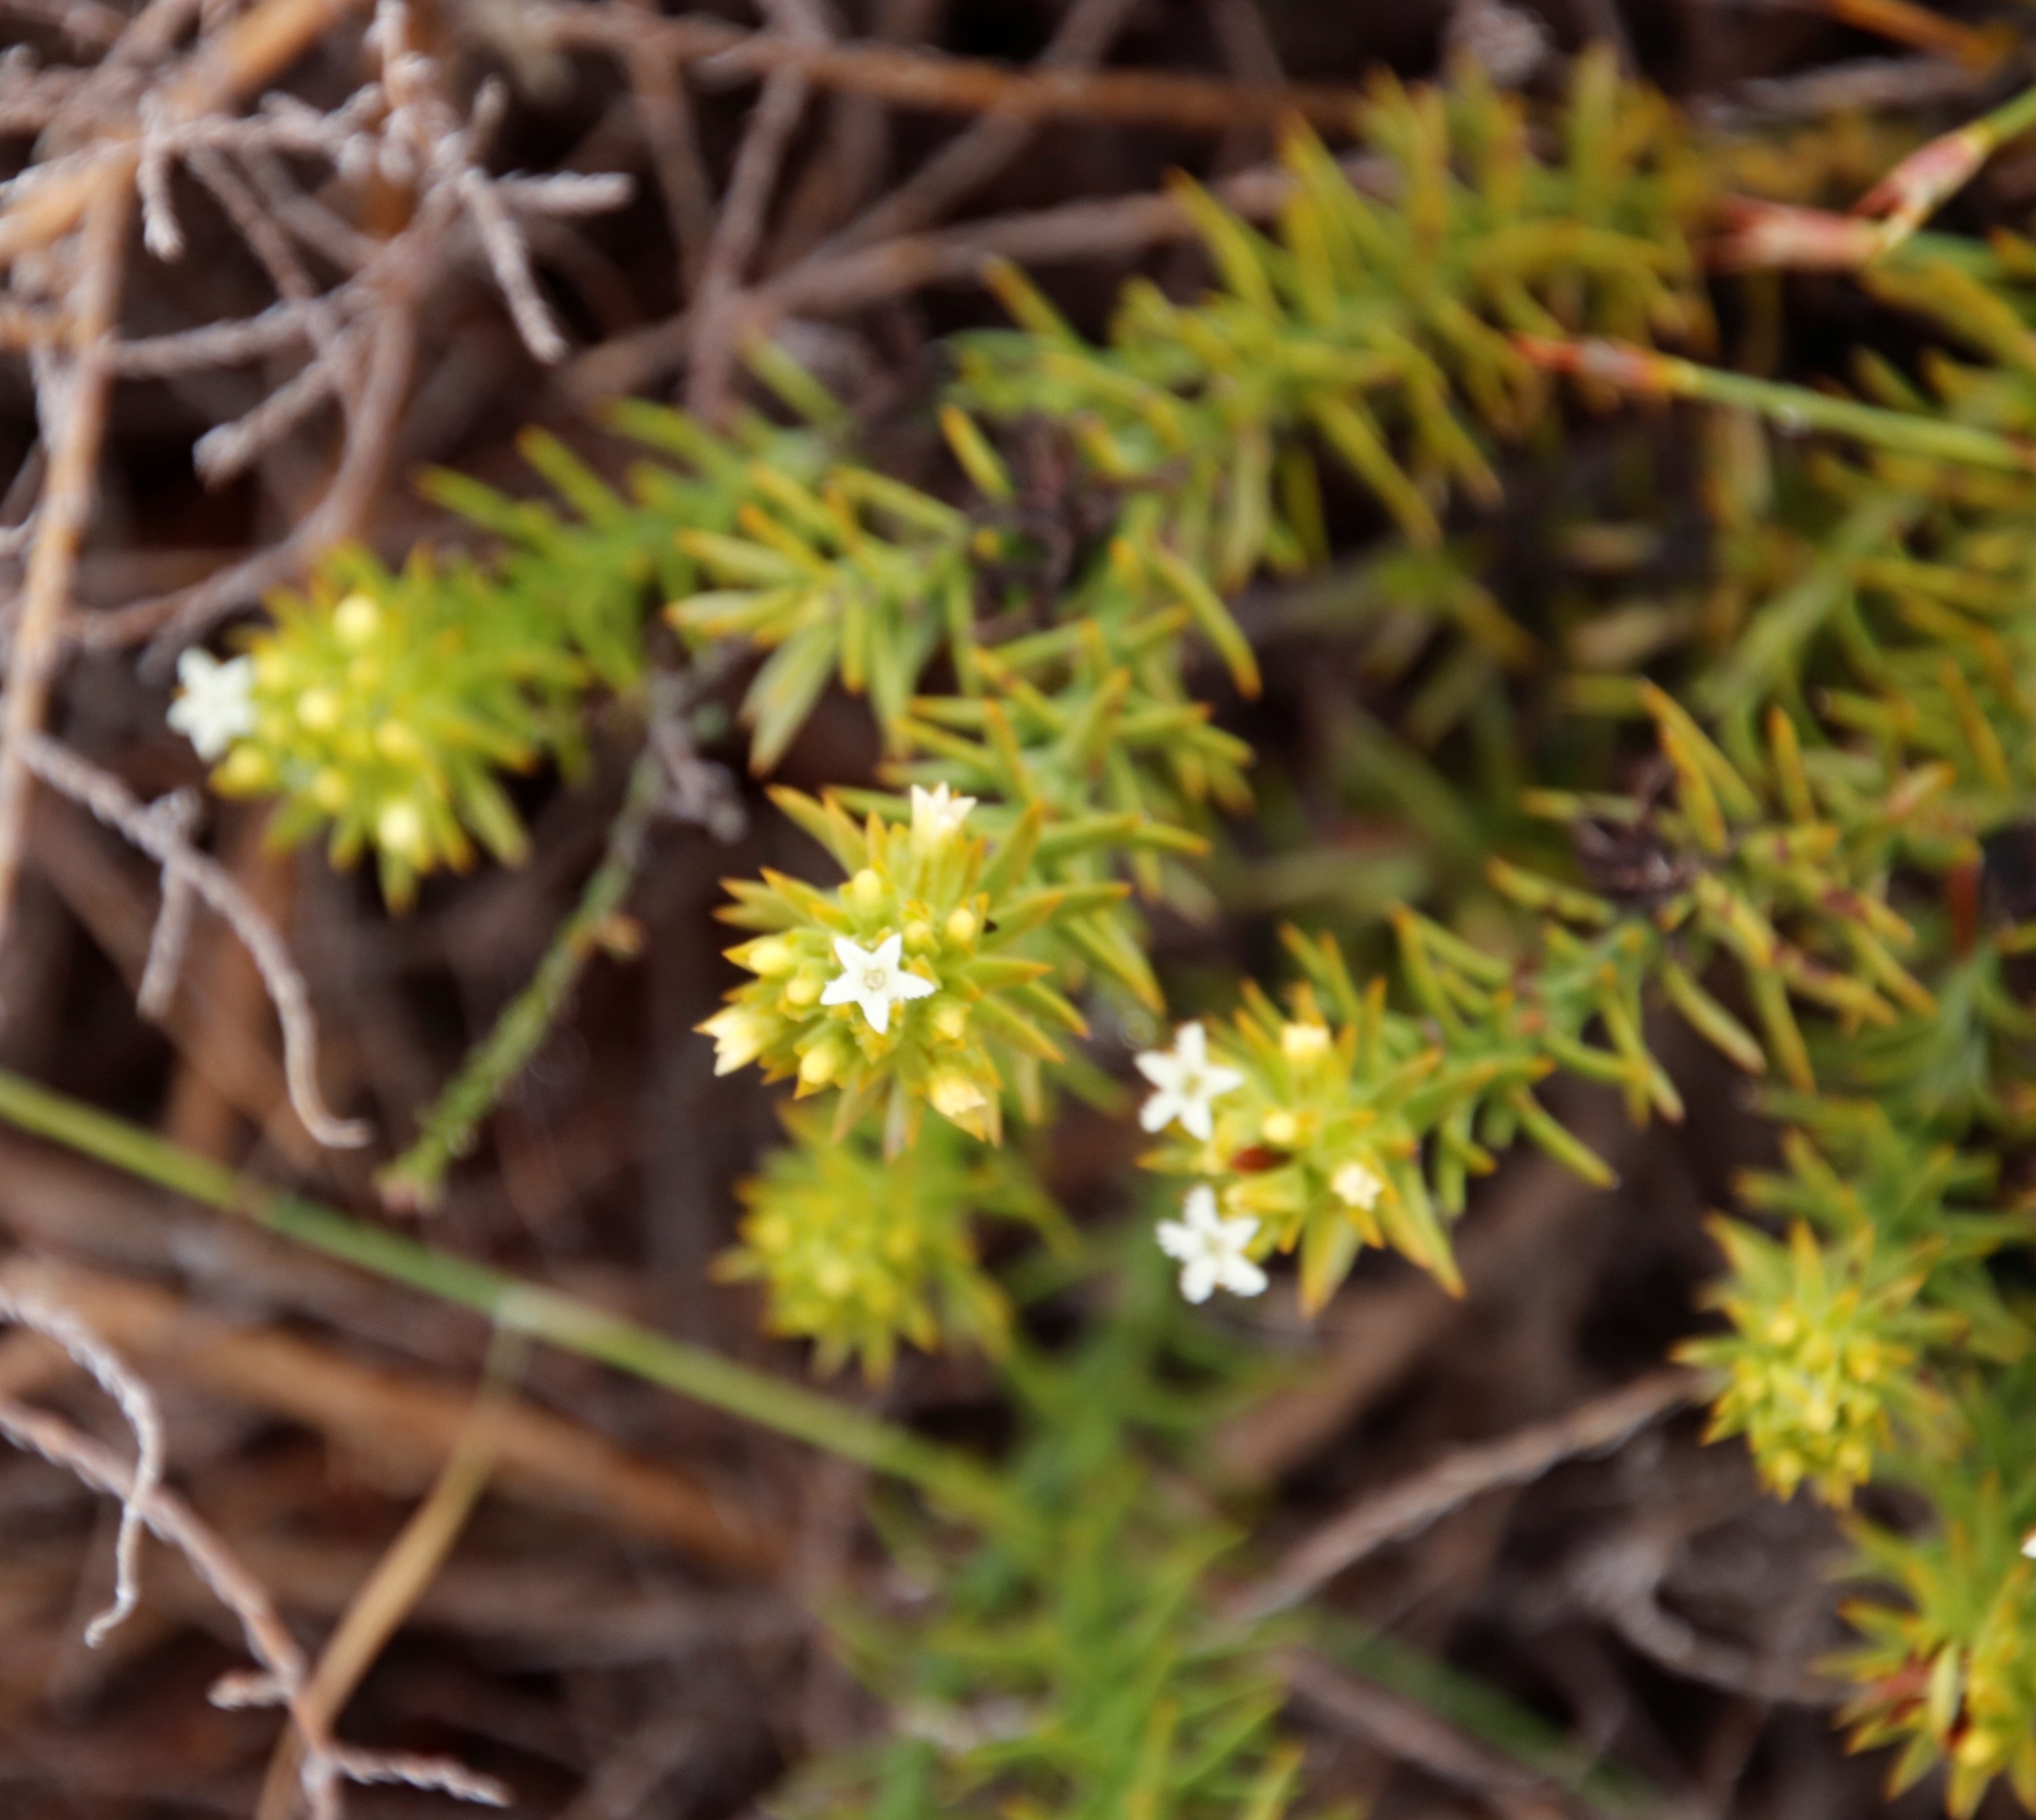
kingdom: Plantae
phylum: Tracheophyta
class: Magnoliopsida
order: Santalales
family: Thesiaceae
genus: Thesium
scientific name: Thesium viridifolium
